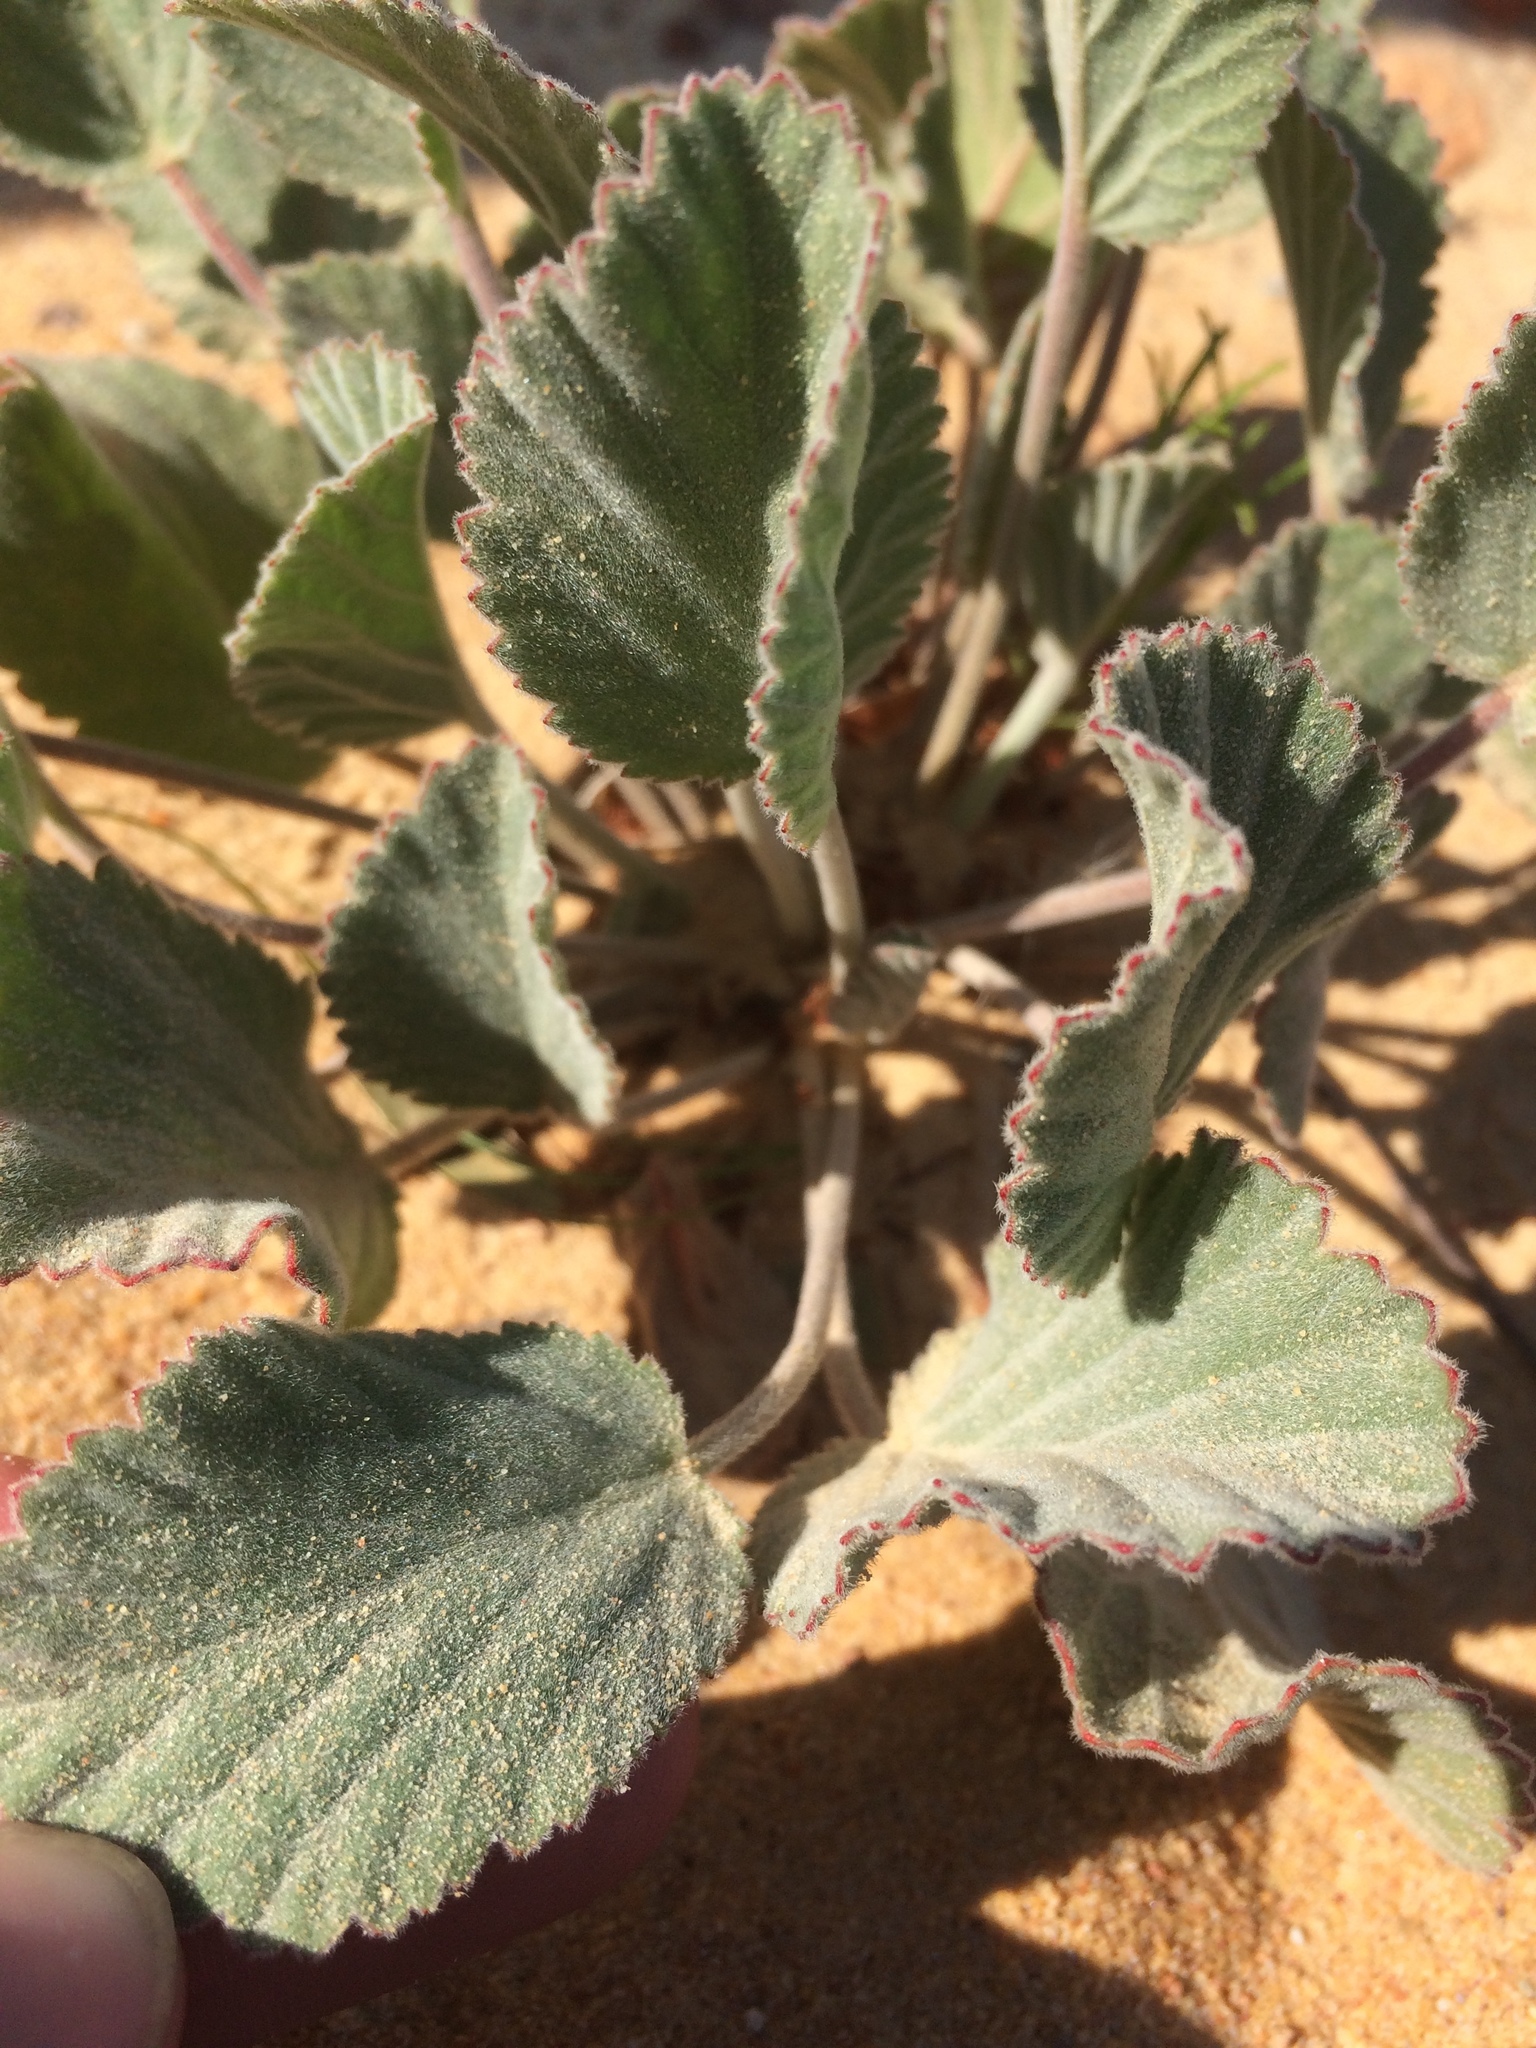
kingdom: Plantae
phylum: Tracheophyta
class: Magnoliopsida
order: Geraniales
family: Geraniaceae
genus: Pelargonium
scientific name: Pelargonium ovale
